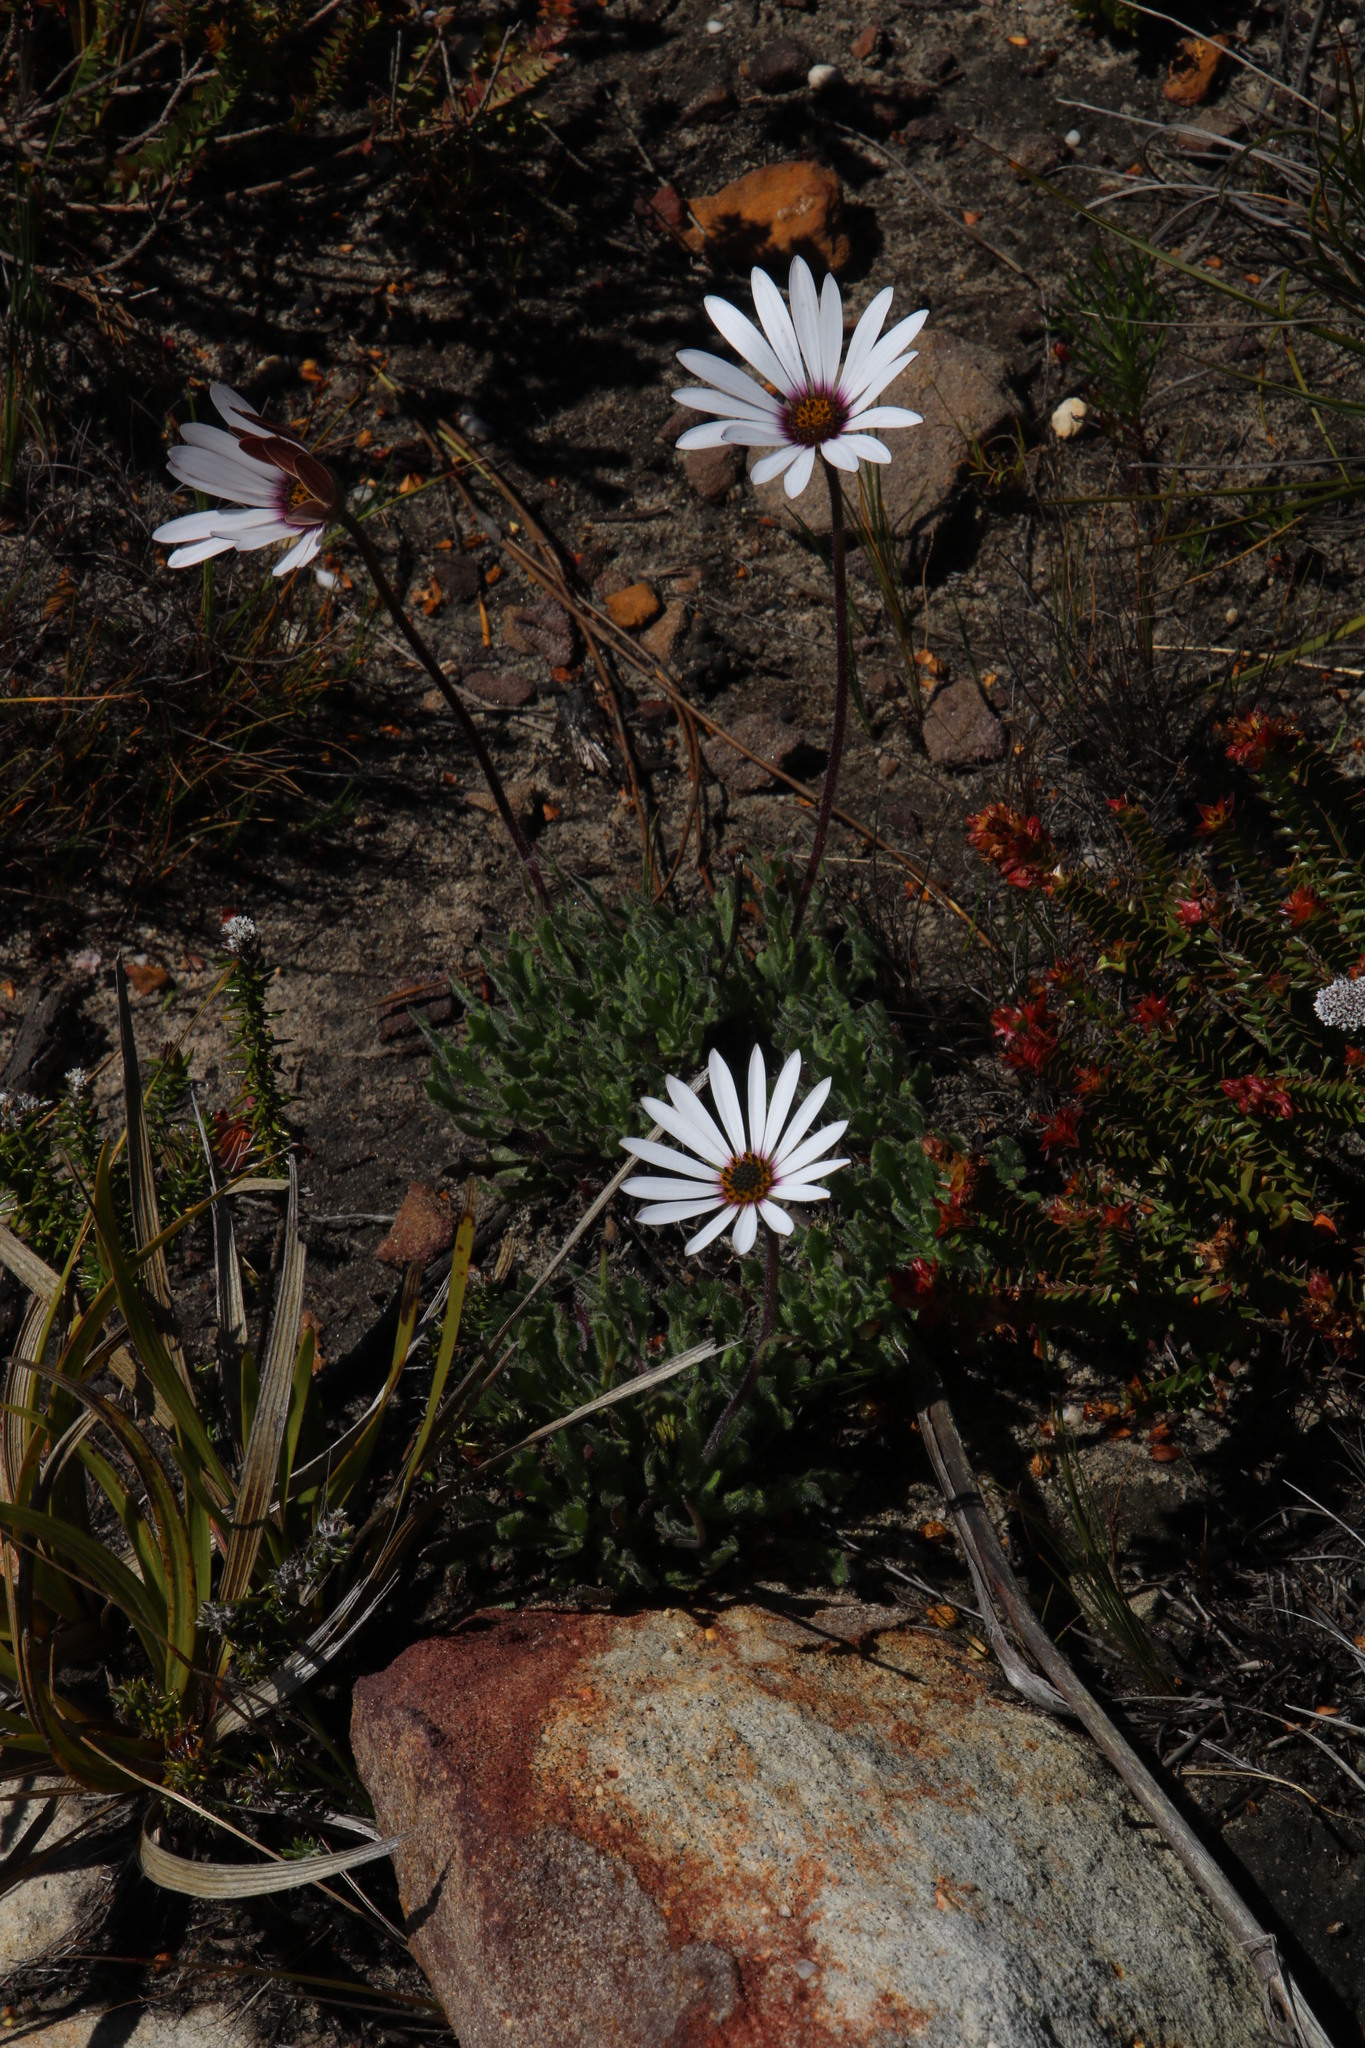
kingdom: Plantae
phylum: Tracheophyta
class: Magnoliopsida
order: Asterales
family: Asteraceae
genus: Dimorphotheca
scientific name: Dimorphotheca nudicaulis
